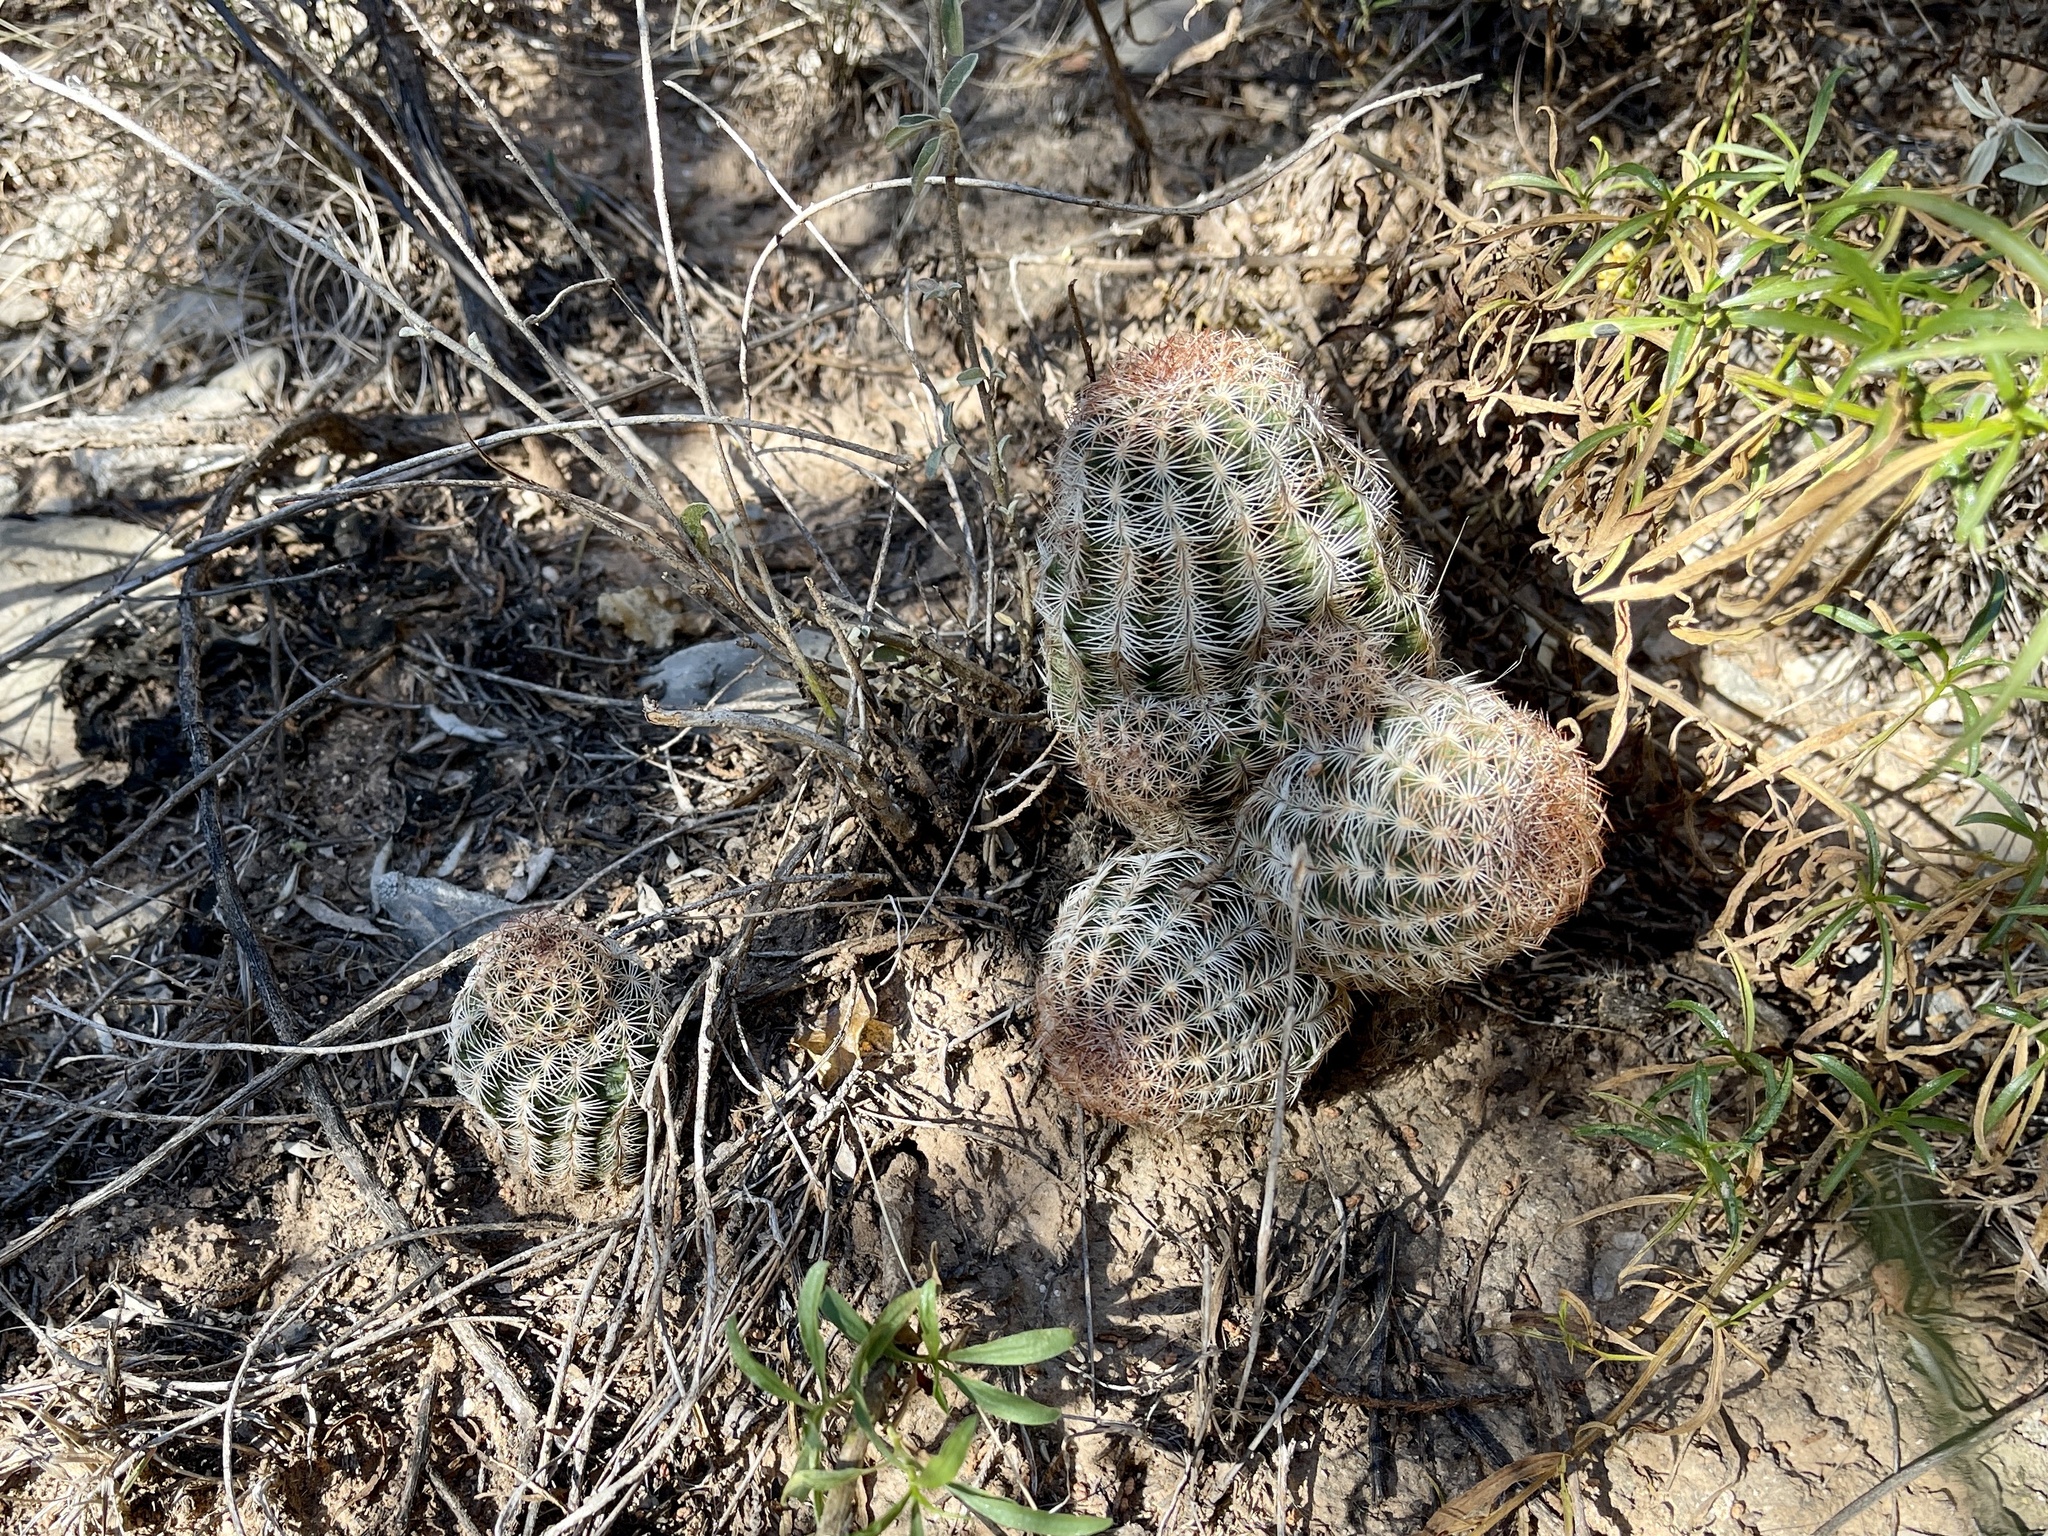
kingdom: Plantae
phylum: Tracheophyta
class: Magnoliopsida
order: Caryophyllales
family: Cactaceae
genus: Echinocereus
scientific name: Echinocereus reichenbachii
